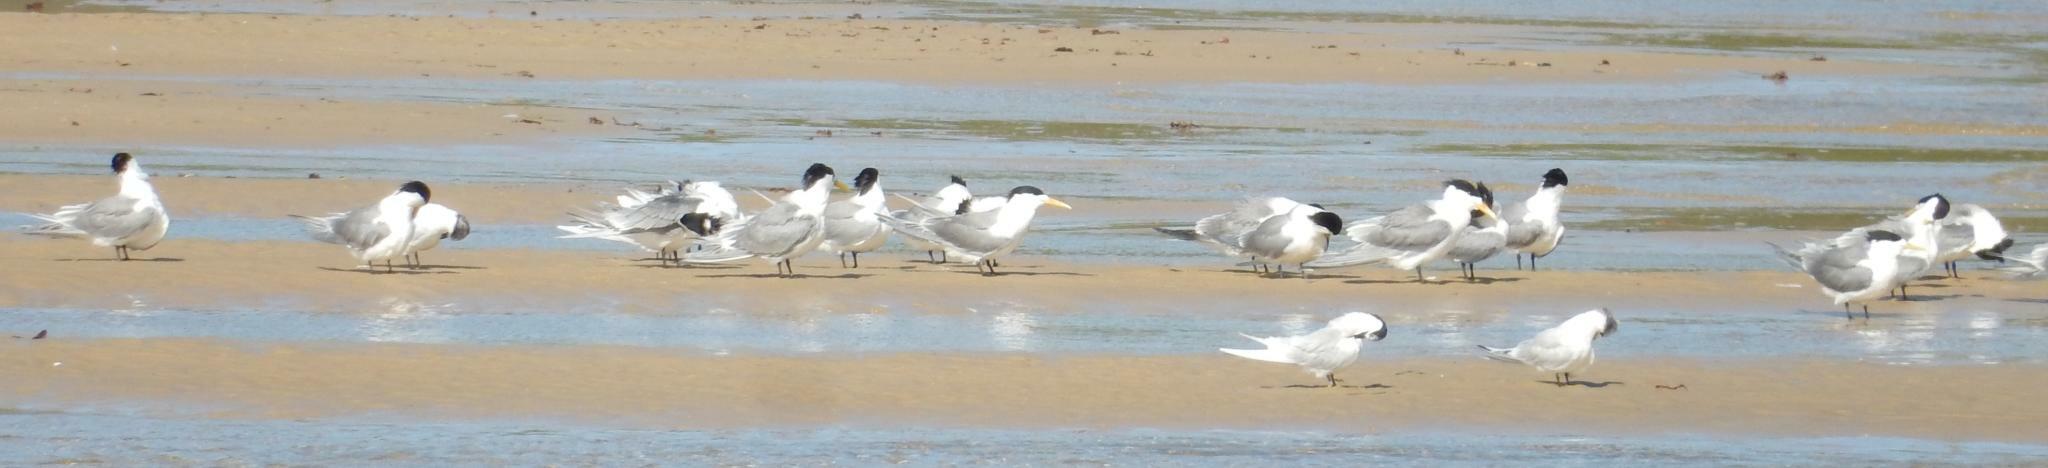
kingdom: Animalia
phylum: Chordata
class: Aves
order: Charadriiformes
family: Laridae
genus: Thalasseus
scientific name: Thalasseus bergii
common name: Greater crested tern
